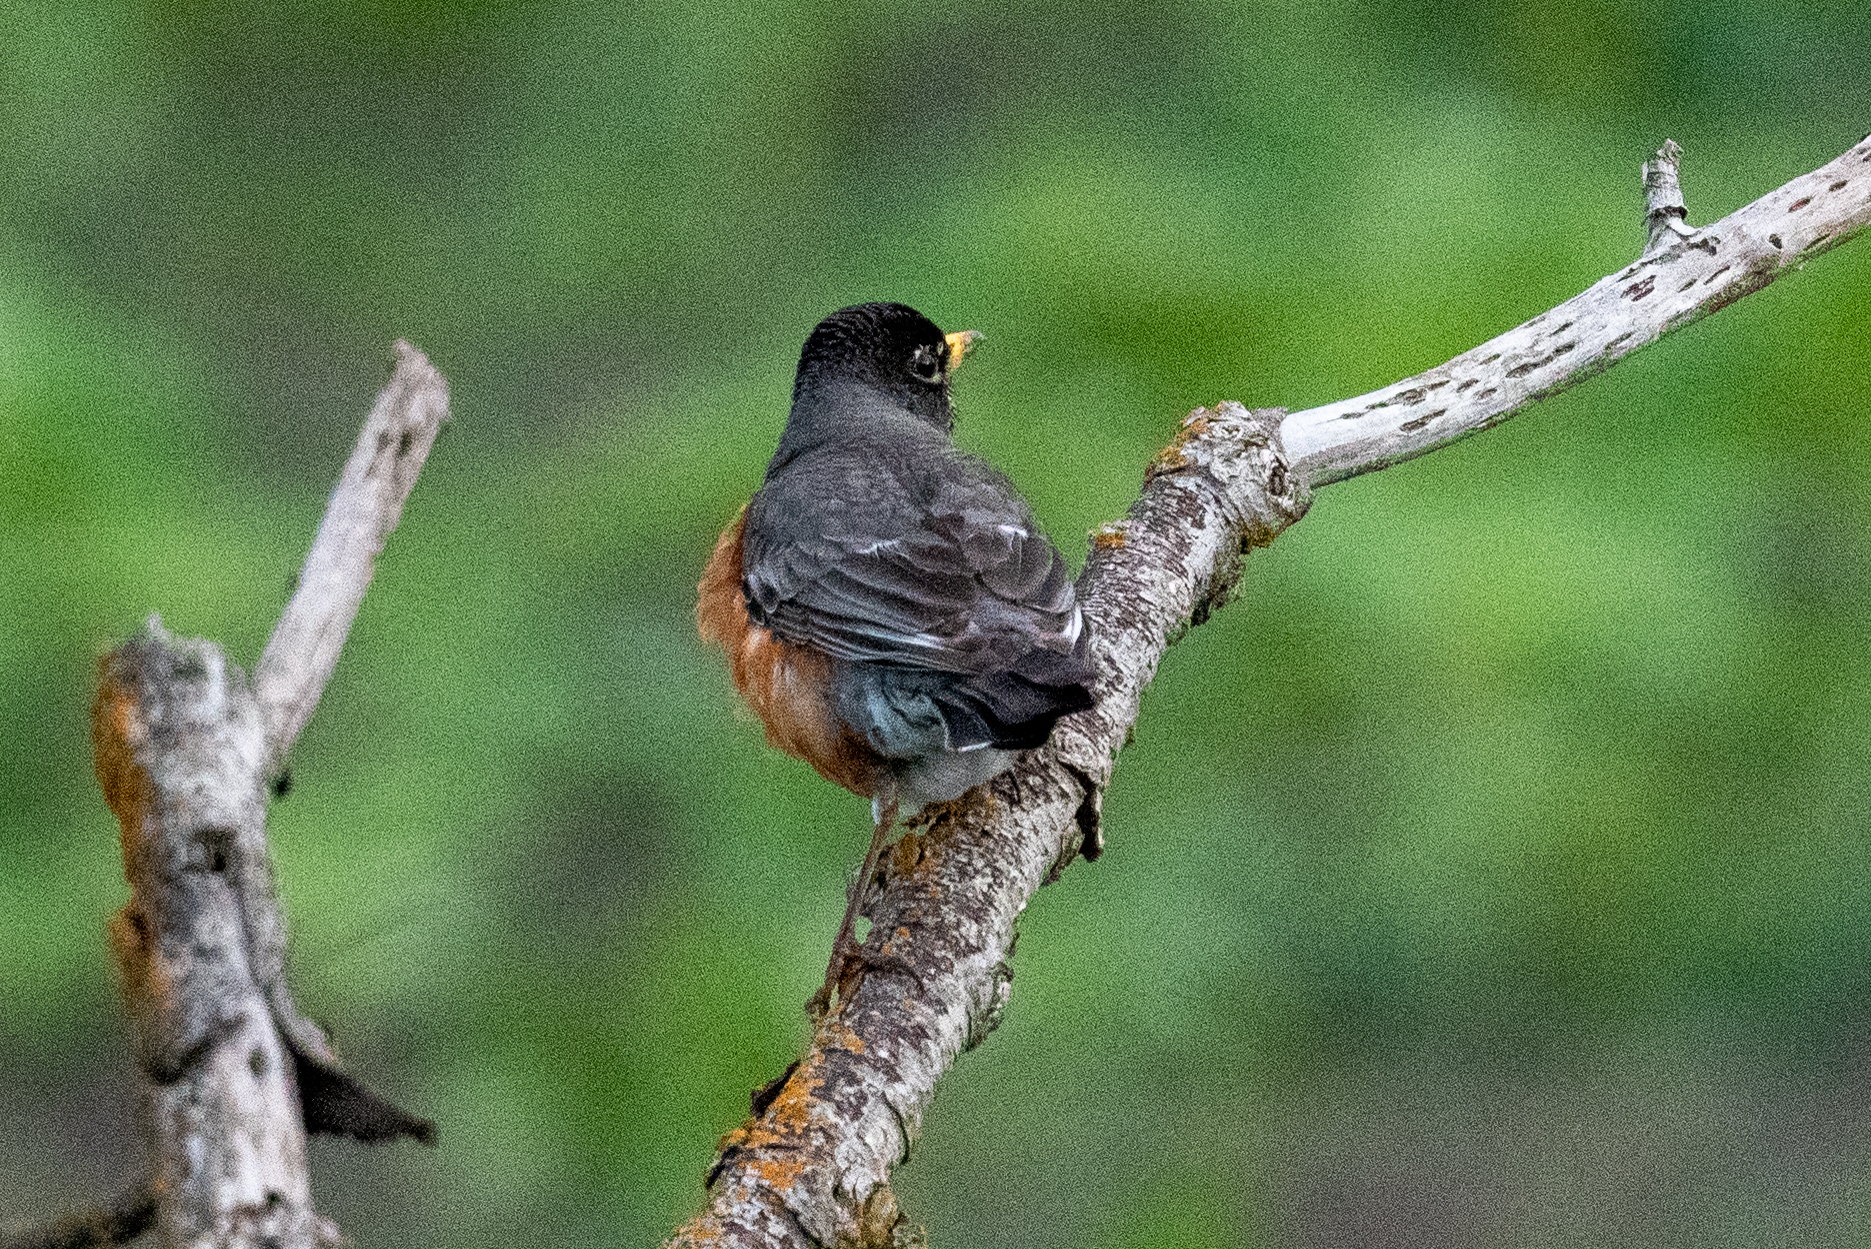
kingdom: Animalia
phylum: Chordata
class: Aves
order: Passeriformes
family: Turdidae
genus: Turdus
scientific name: Turdus migratorius
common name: American robin
